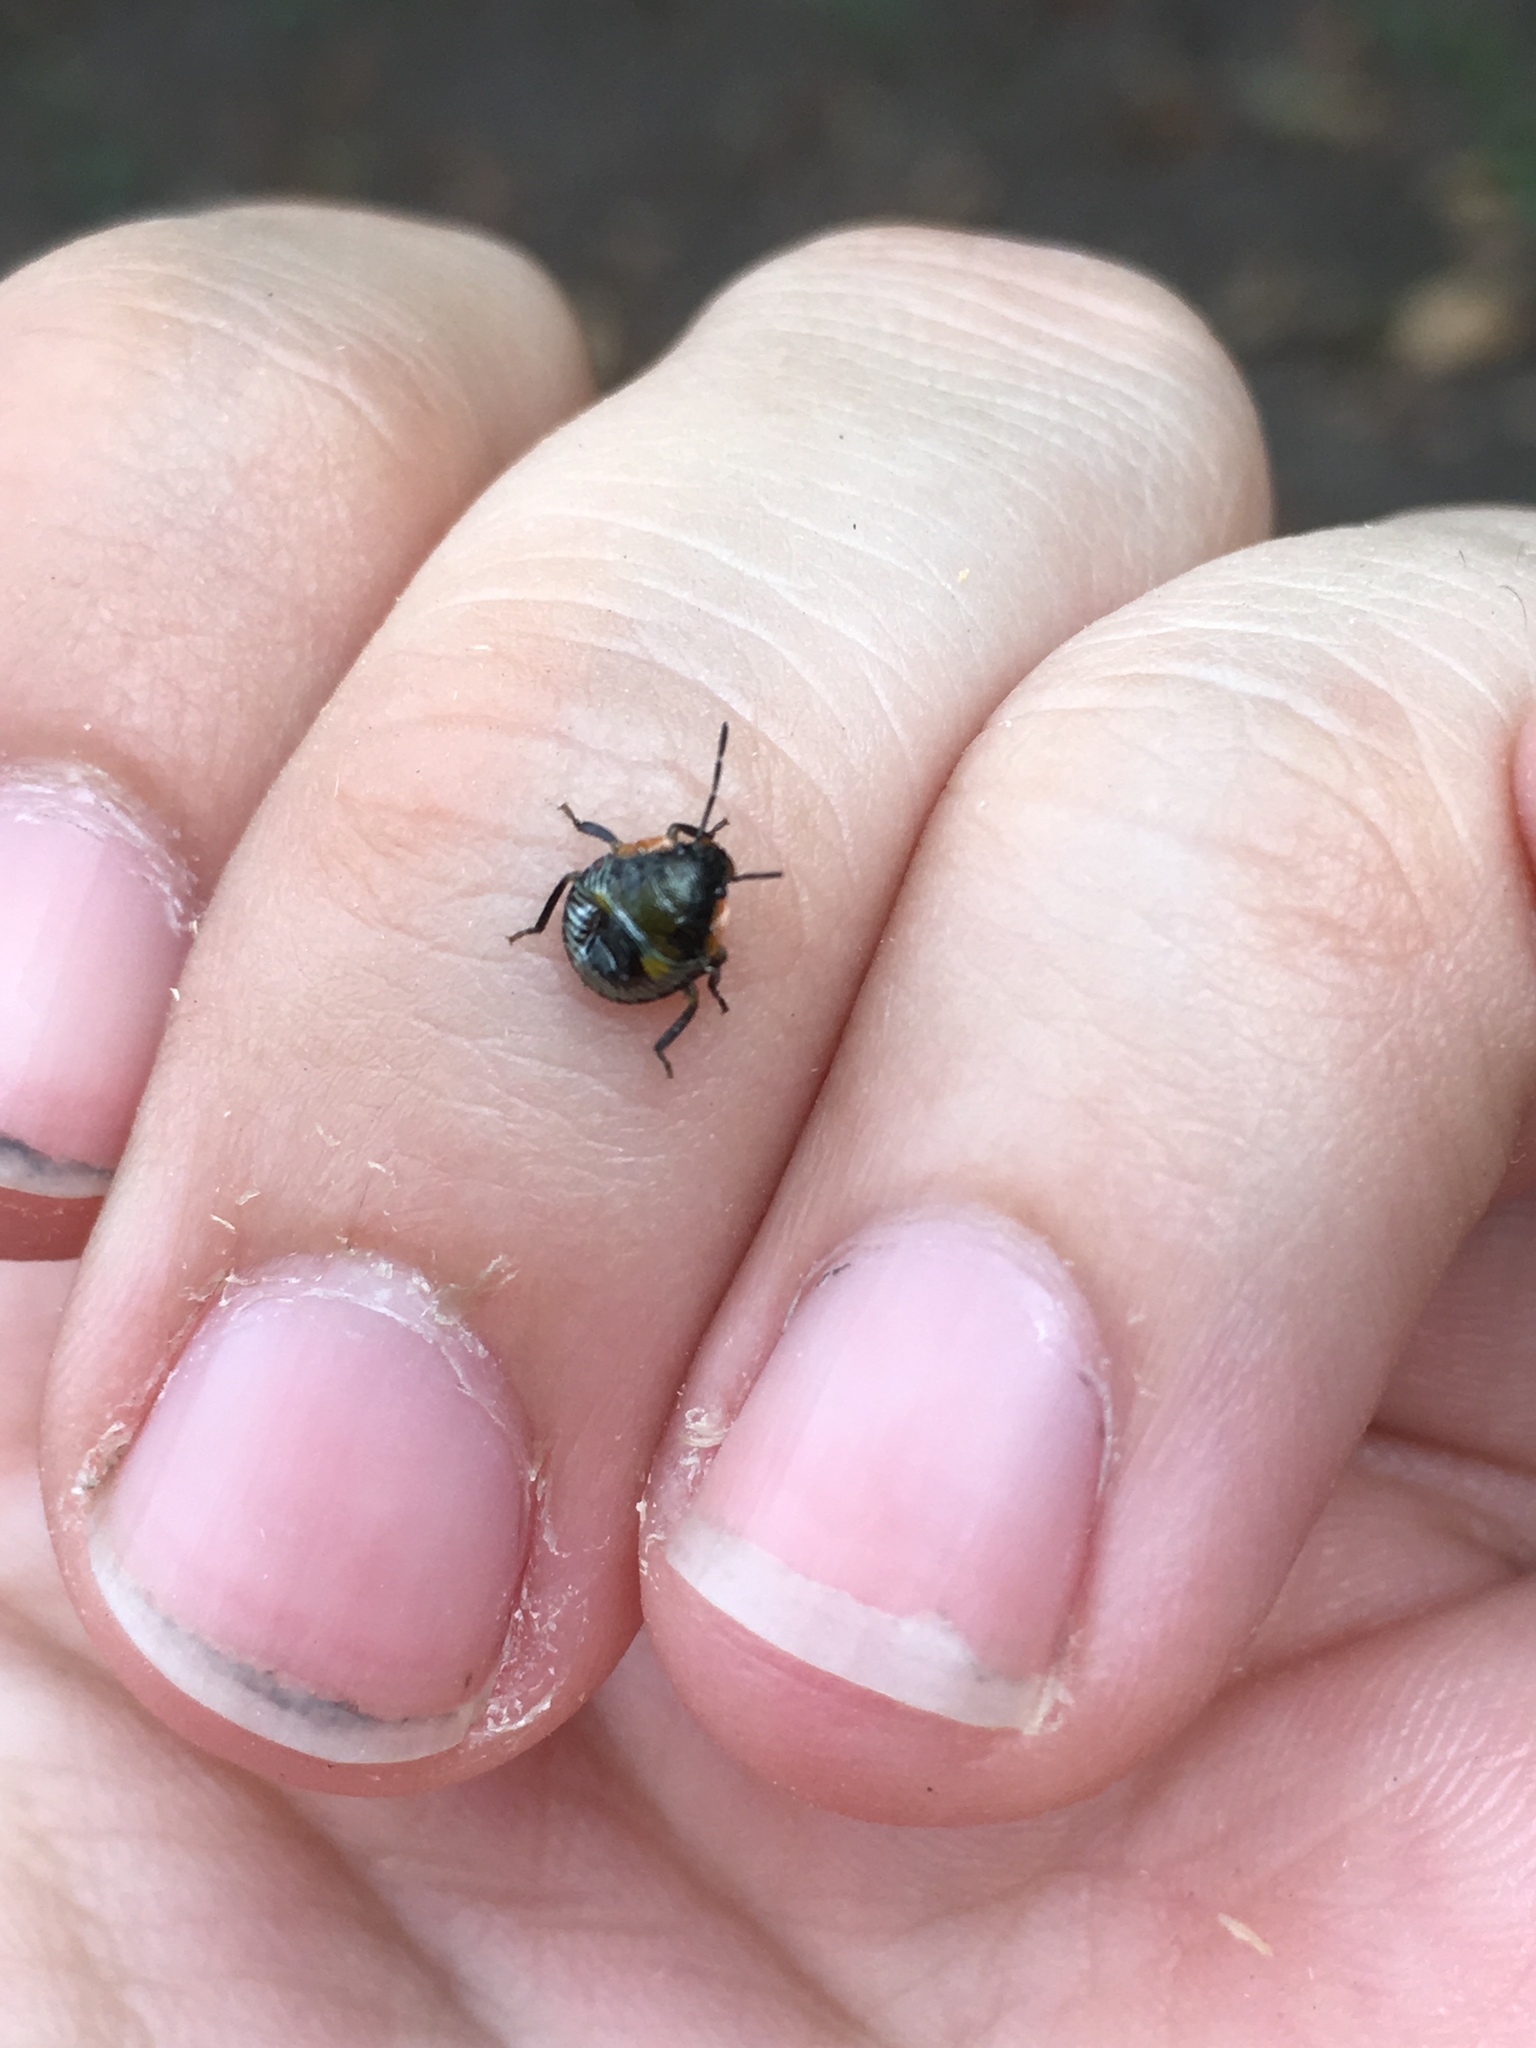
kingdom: Animalia
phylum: Arthropoda
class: Insecta
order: Hemiptera
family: Pentatomidae
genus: Chinavia
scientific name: Chinavia hilaris
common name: Green stink bug
